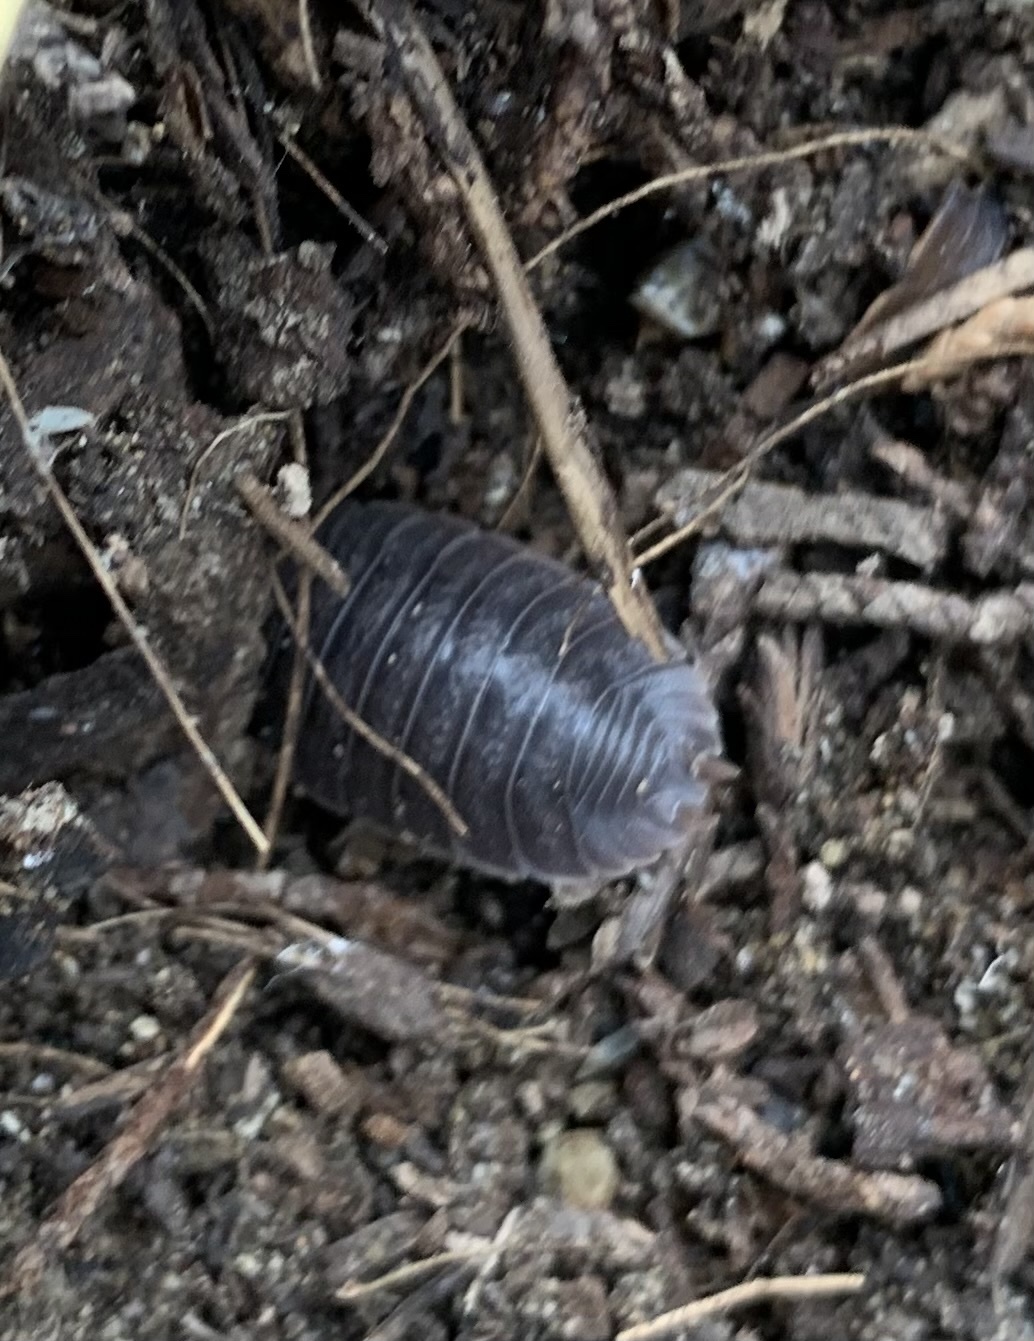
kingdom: Animalia
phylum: Arthropoda
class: Malacostraca
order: Isopoda
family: Porcellionidae
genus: Porcellio
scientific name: Porcellio dilatatus
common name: Isopod
